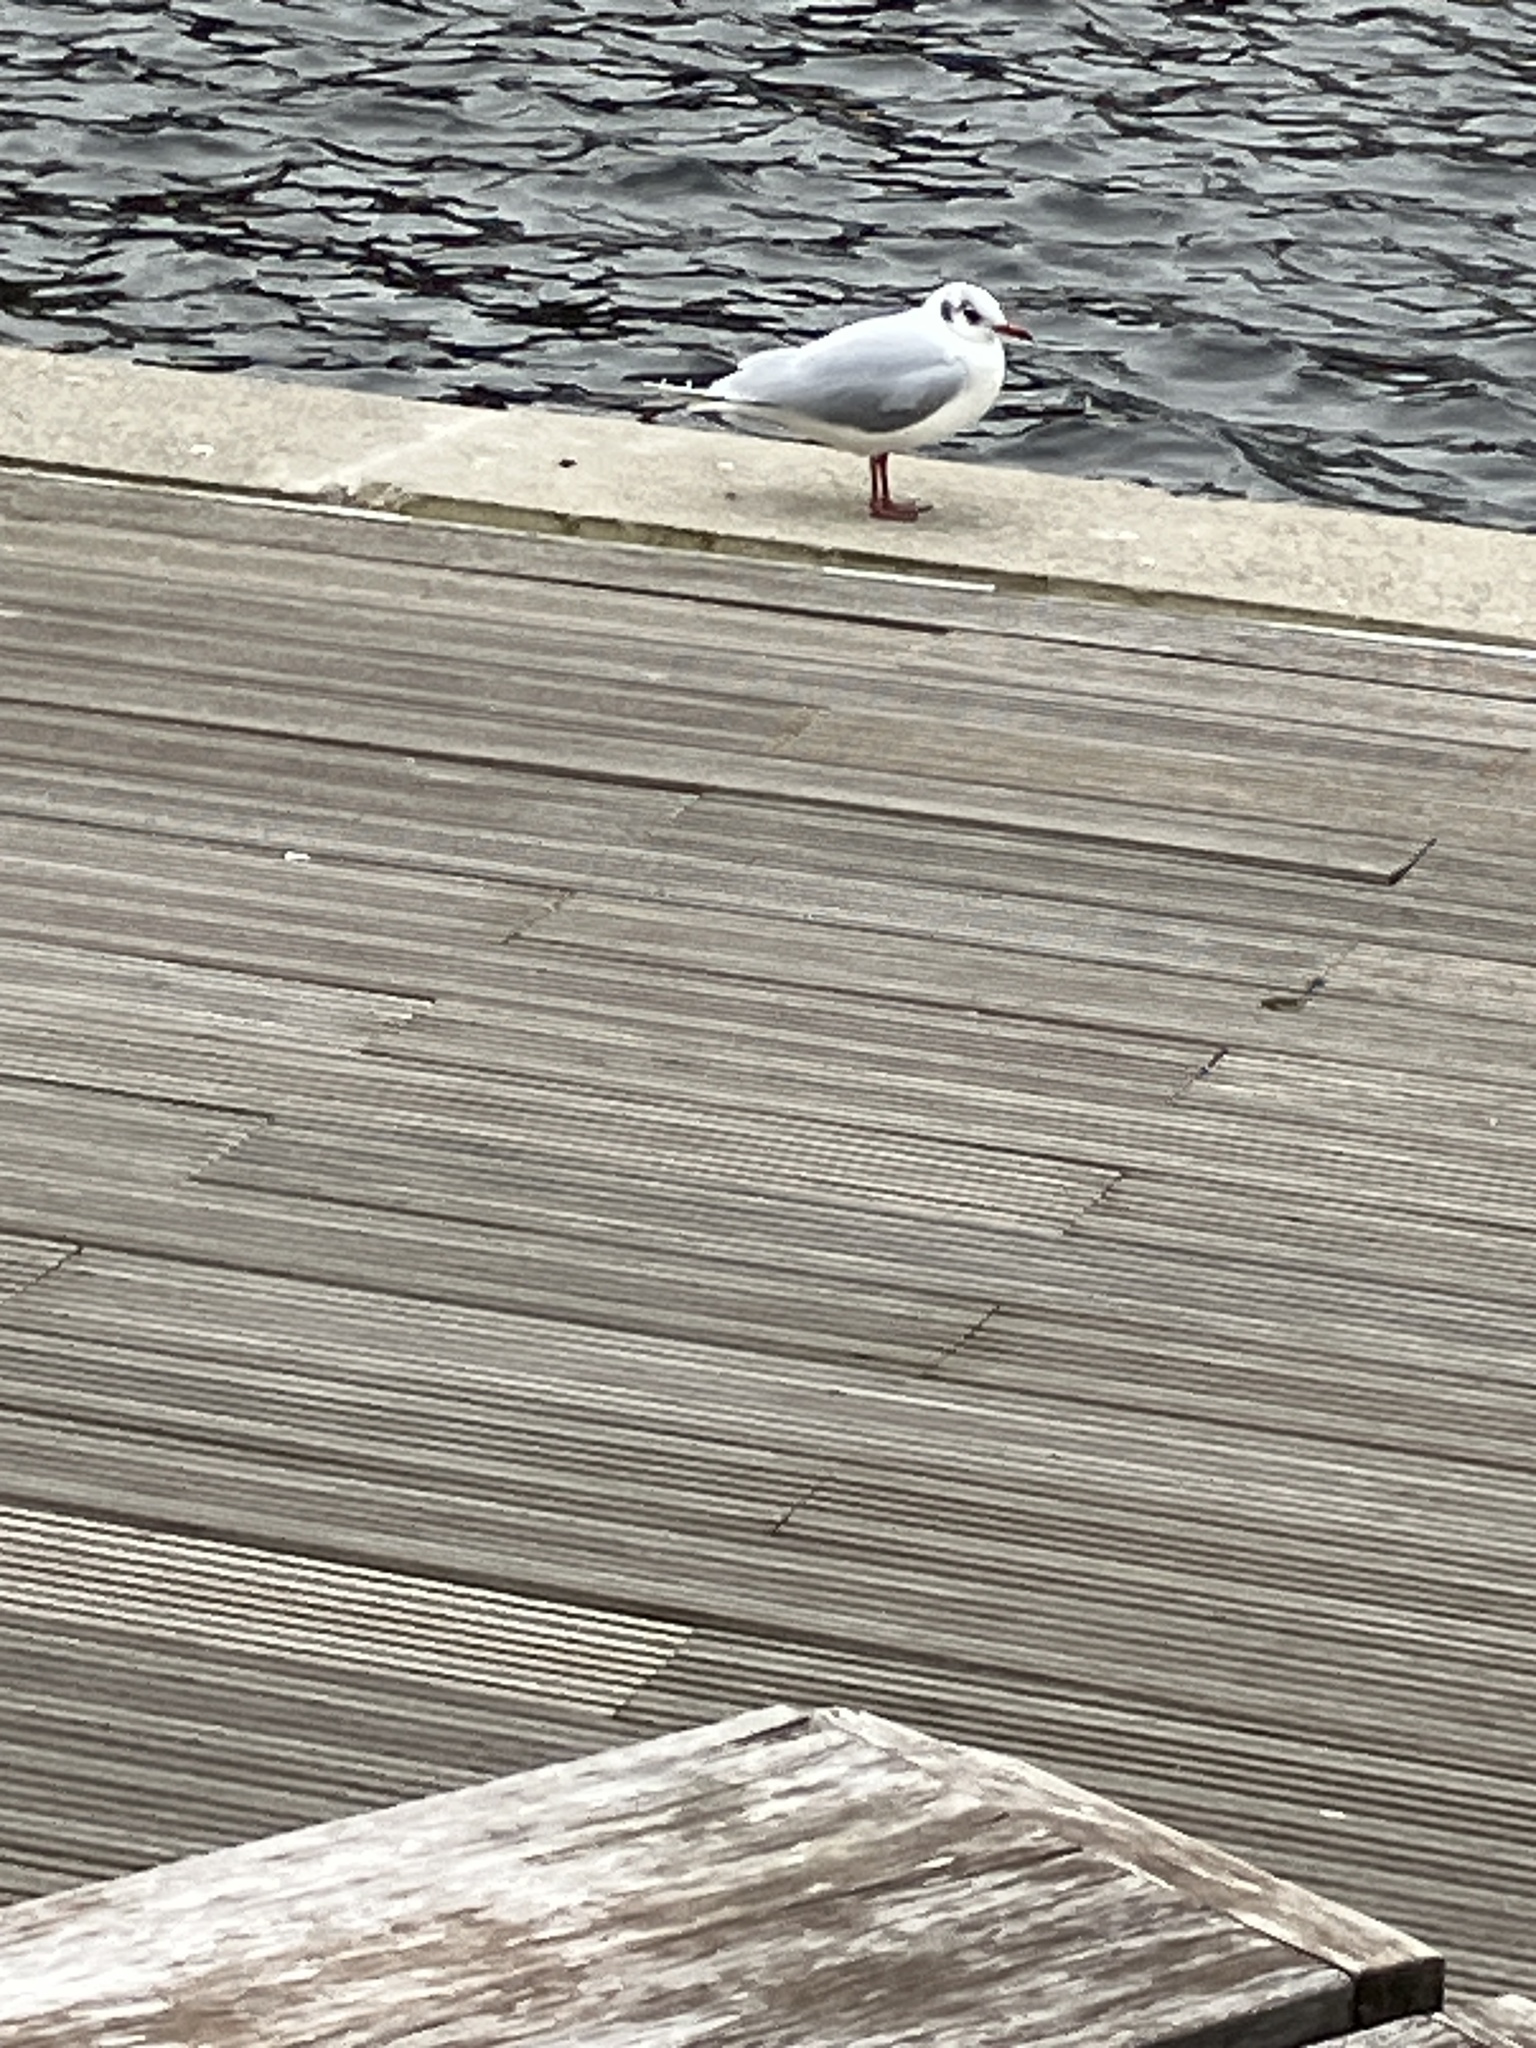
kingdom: Animalia
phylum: Chordata
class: Aves
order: Charadriiformes
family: Laridae
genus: Chroicocephalus
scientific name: Chroicocephalus ridibundus
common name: Black-headed gull
